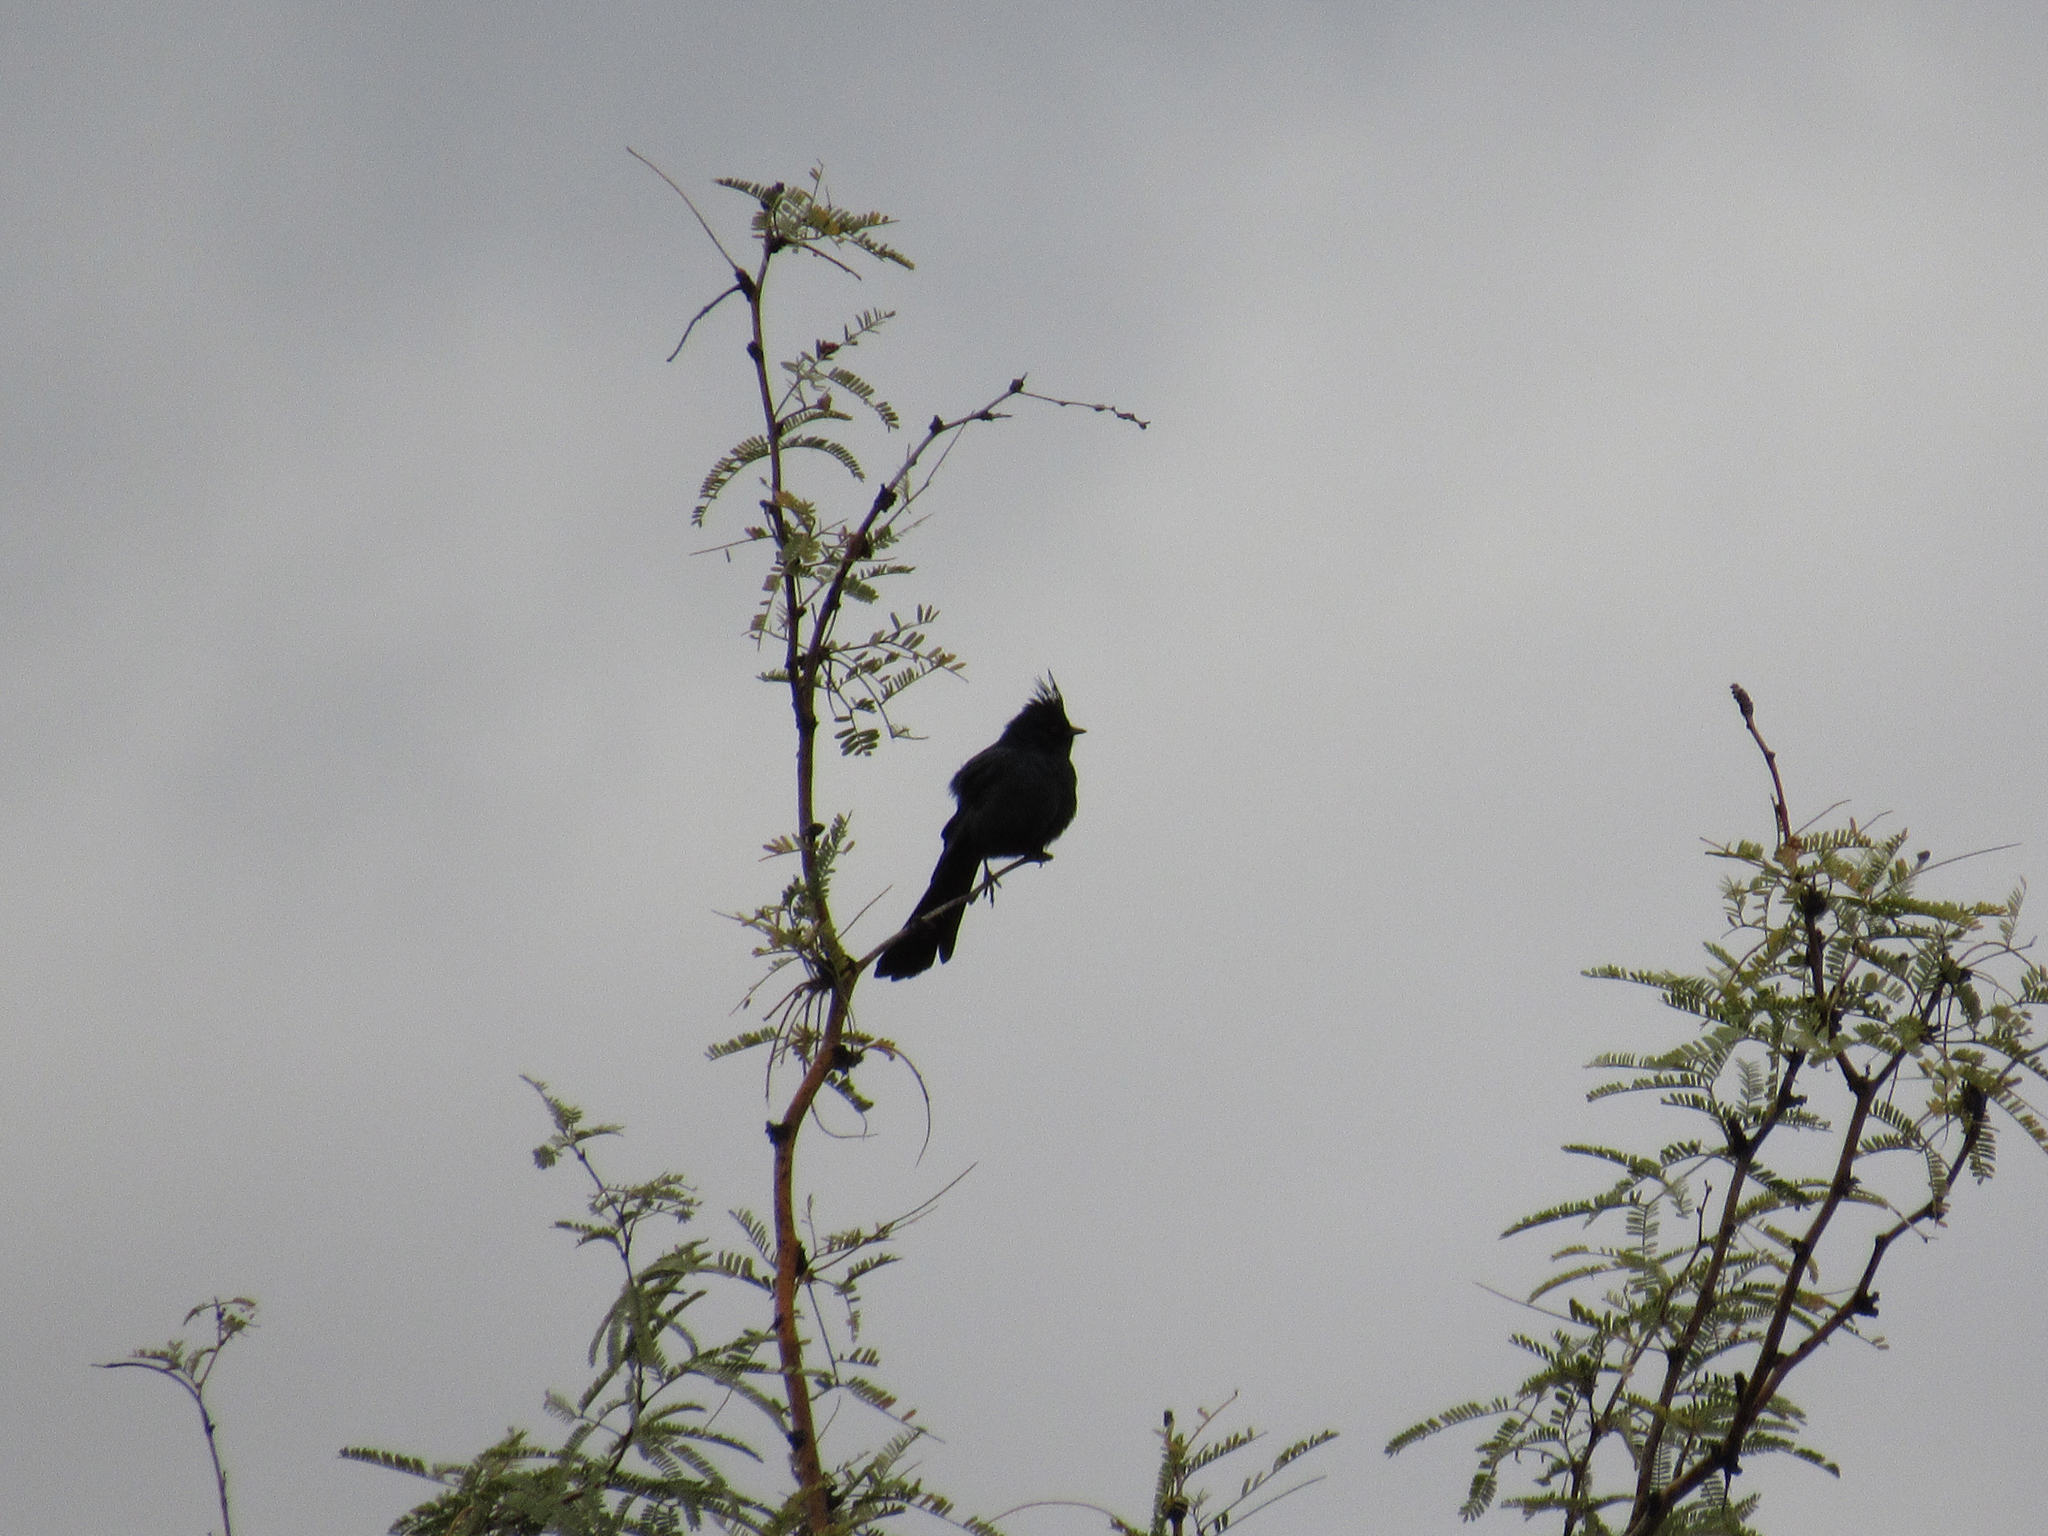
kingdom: Animalia
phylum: Chordata
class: Aves
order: Passeriformes
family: Ptilogonatidae
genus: Phainopepla
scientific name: Phainopepla nitens
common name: Phainopepla
